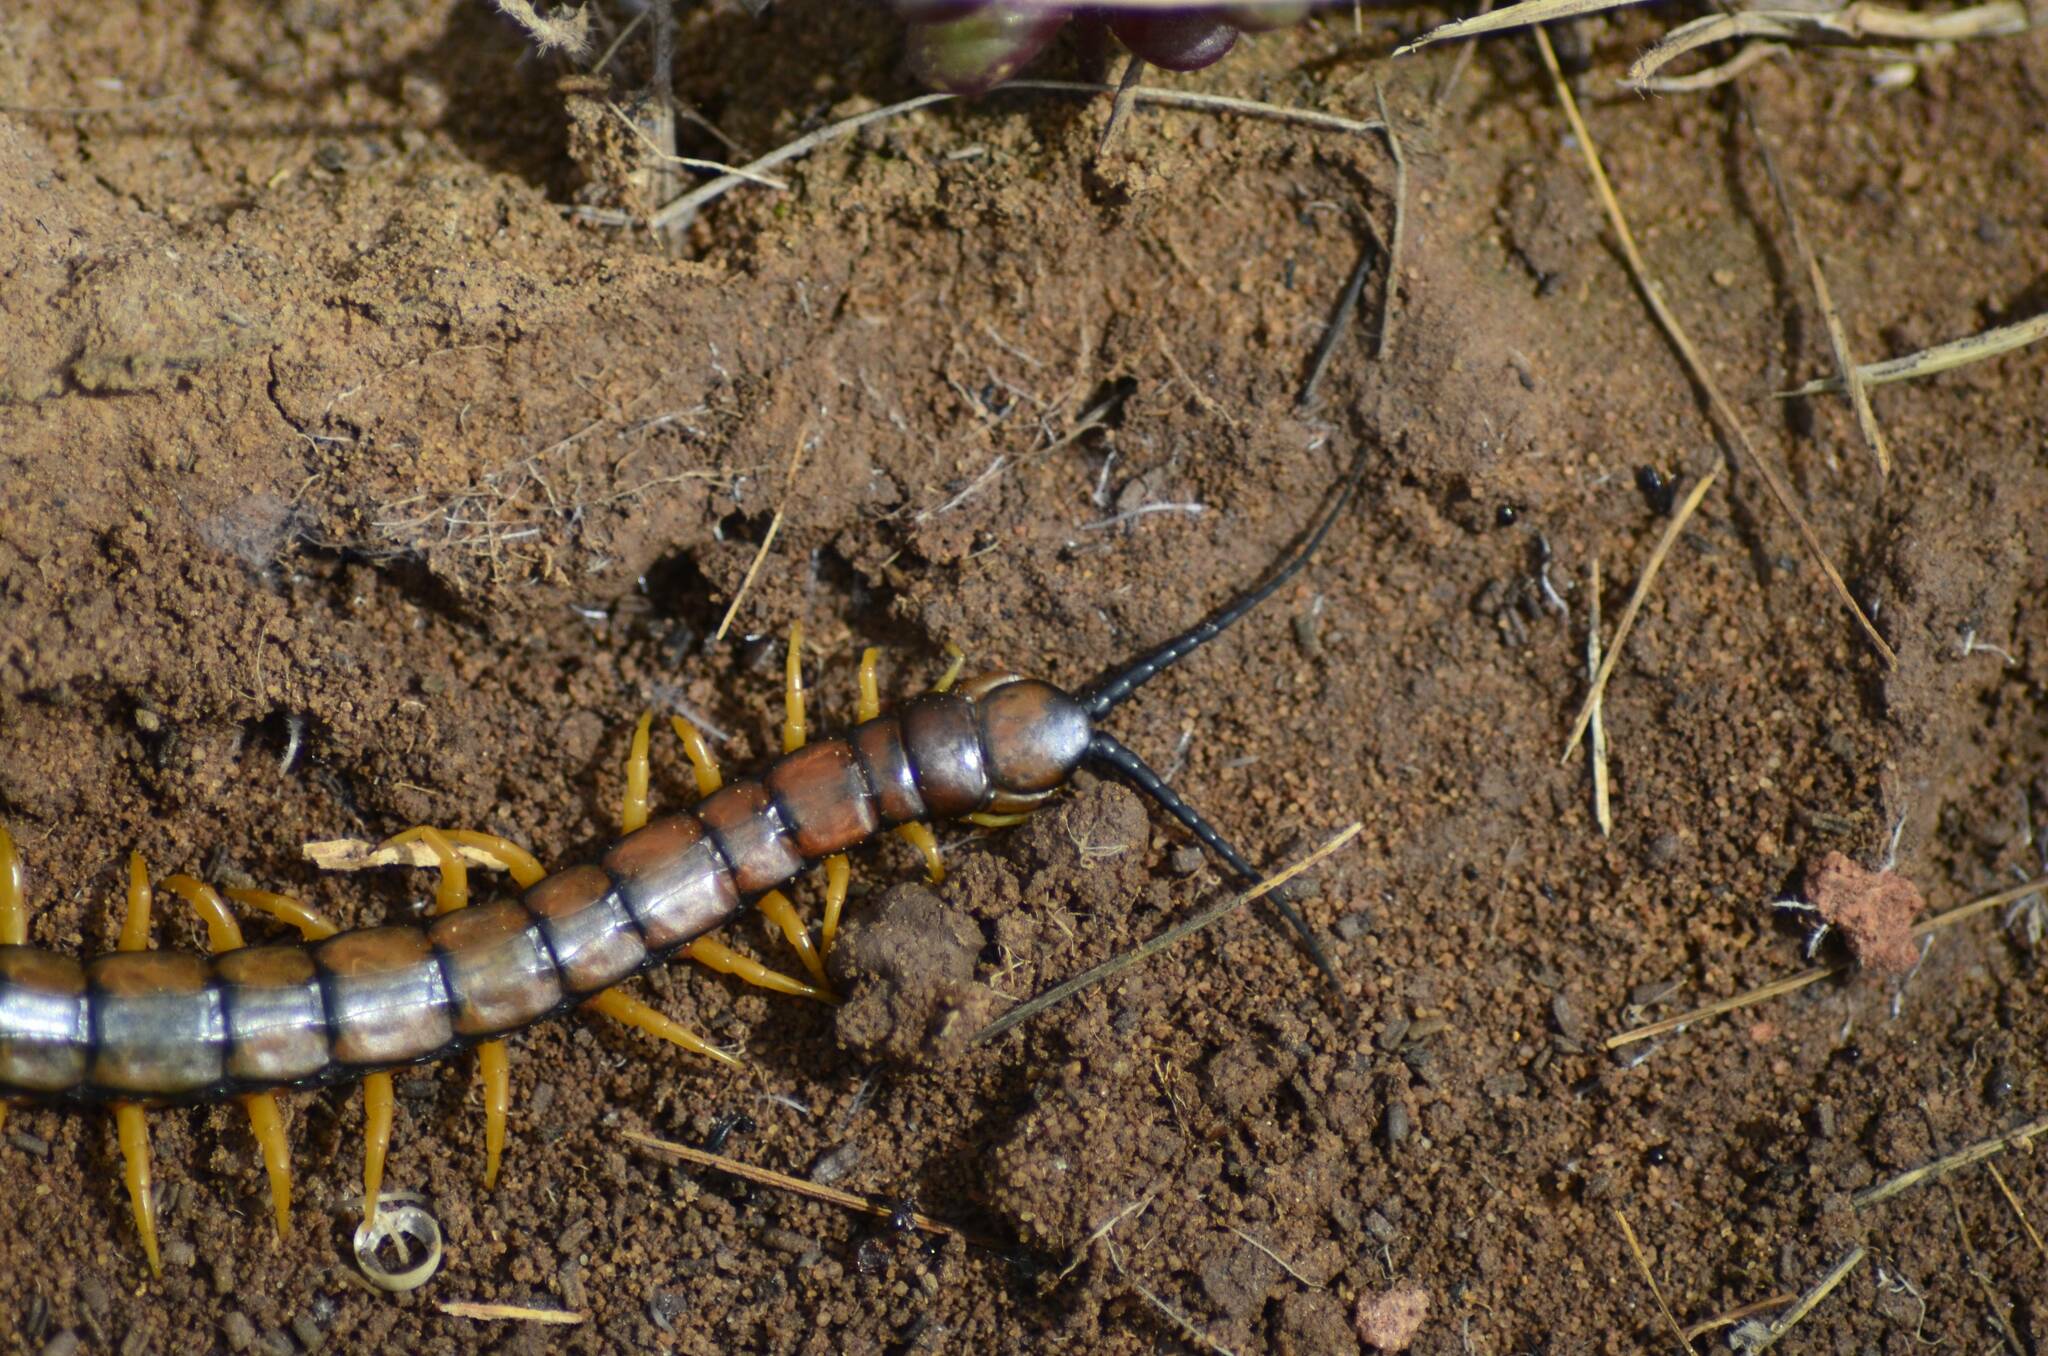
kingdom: Animalia
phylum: Arthropoda
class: Chilopoda
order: Scolopendromorpha
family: Scolopendridae
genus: Scolopendra
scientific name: Scolopendra cingulata
